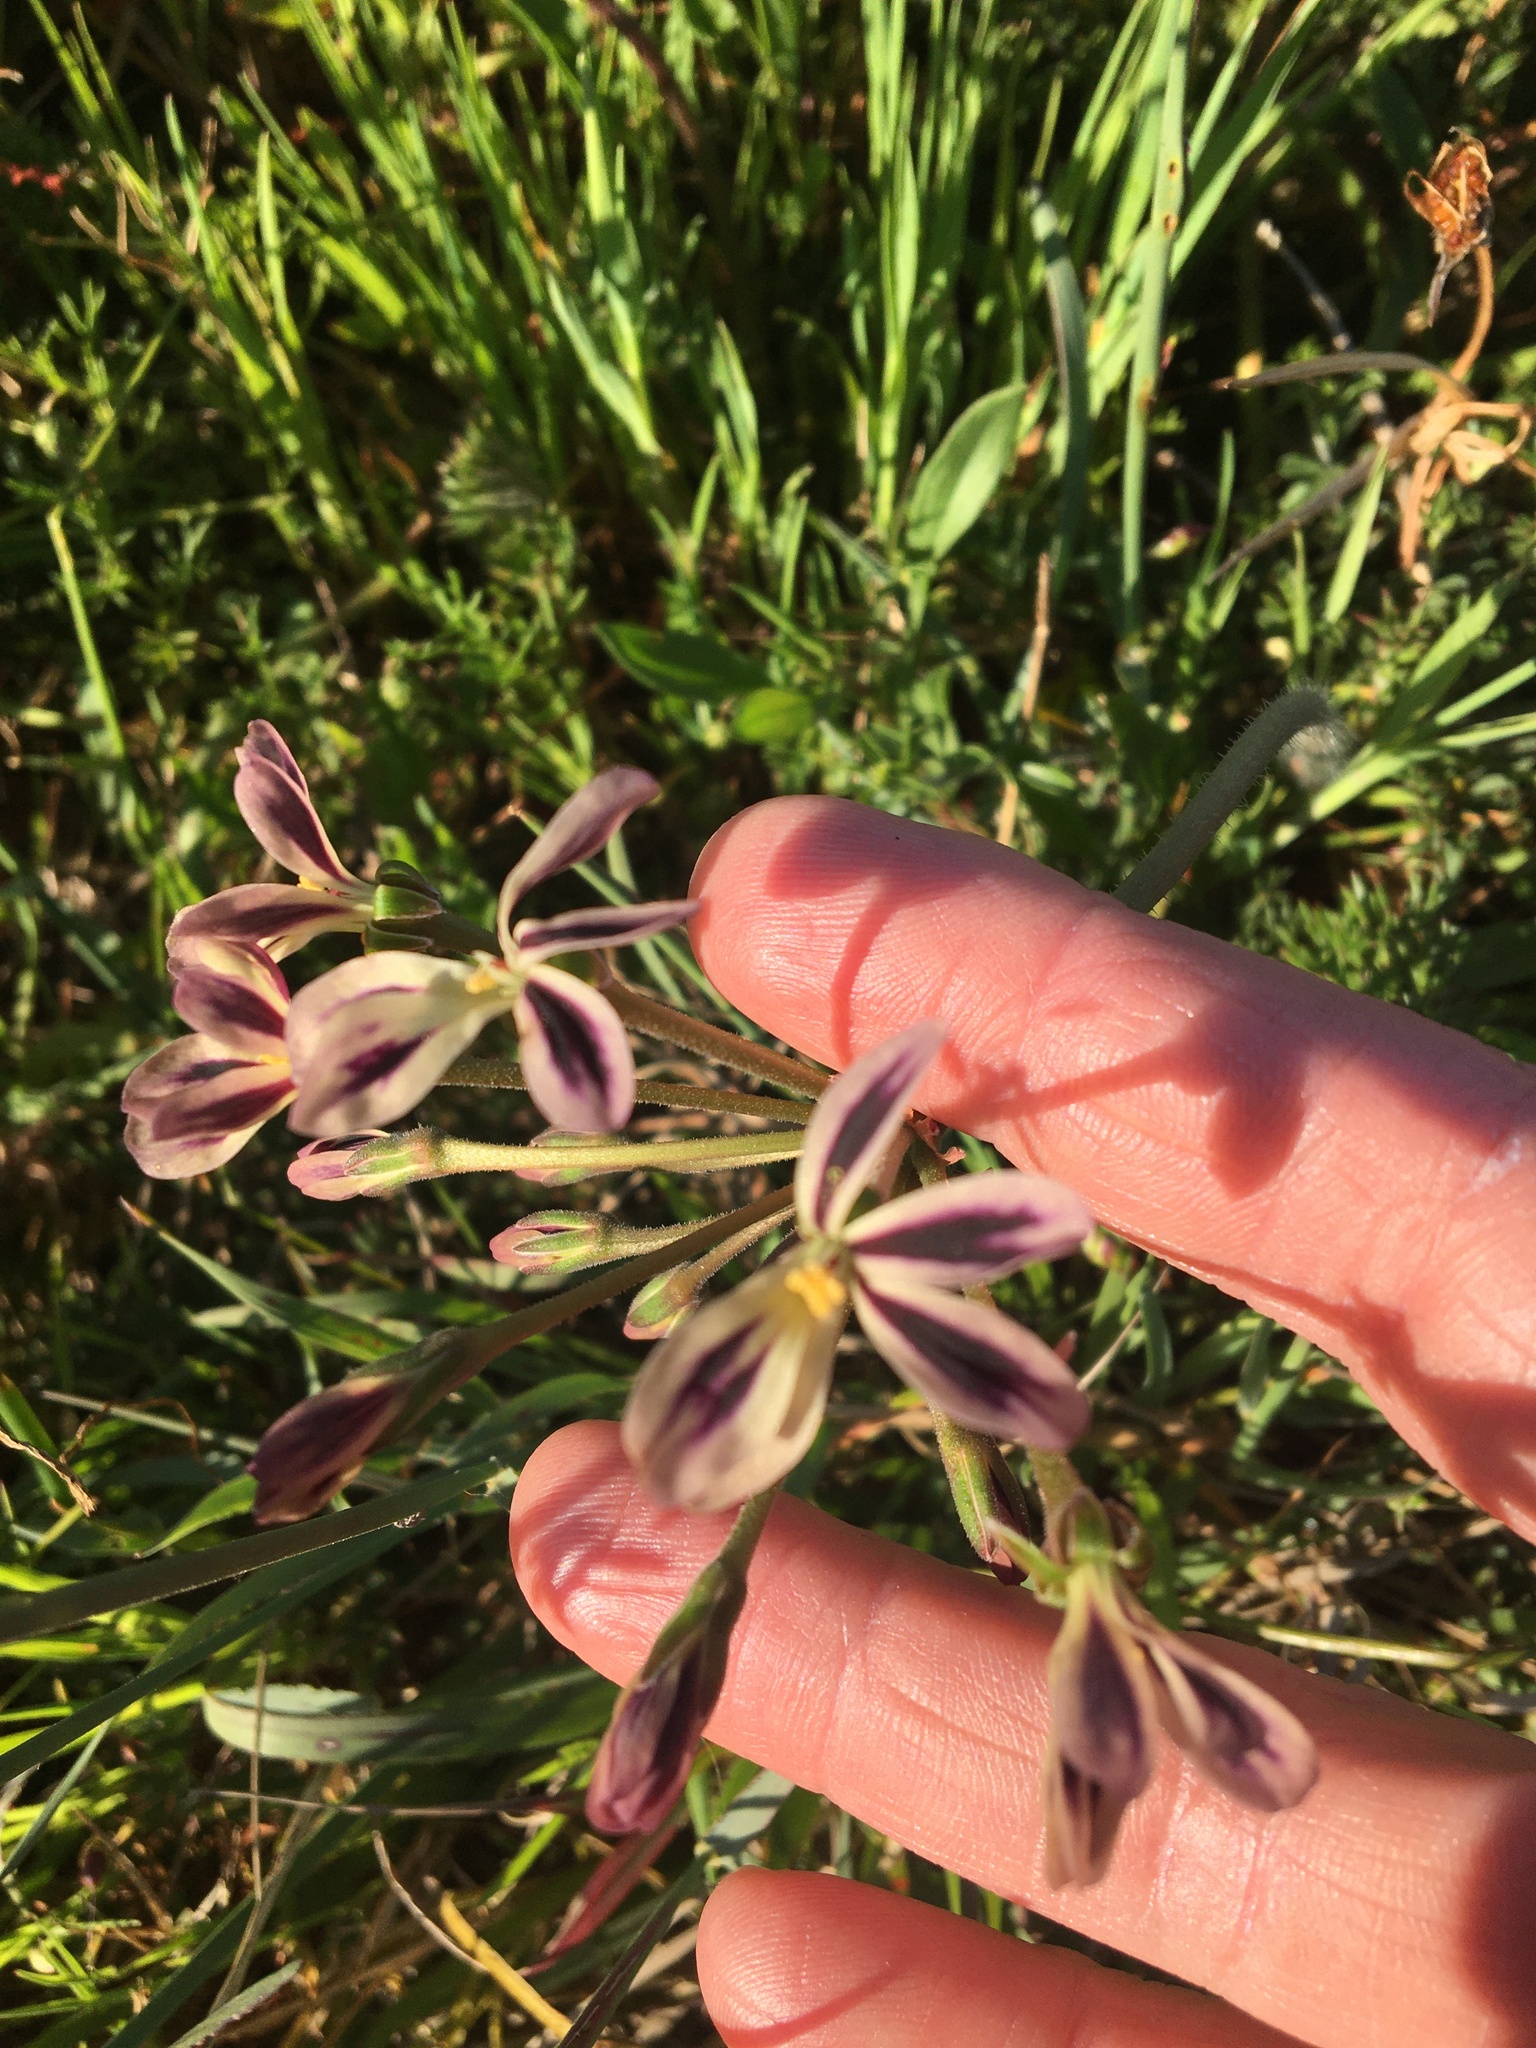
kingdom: Plantae
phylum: Tracheophyta
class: Magnoliopsida
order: Geraniales
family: Geraniaceae
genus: Pelargonium
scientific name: Pelargonium triste
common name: Night-scent pelargonium
